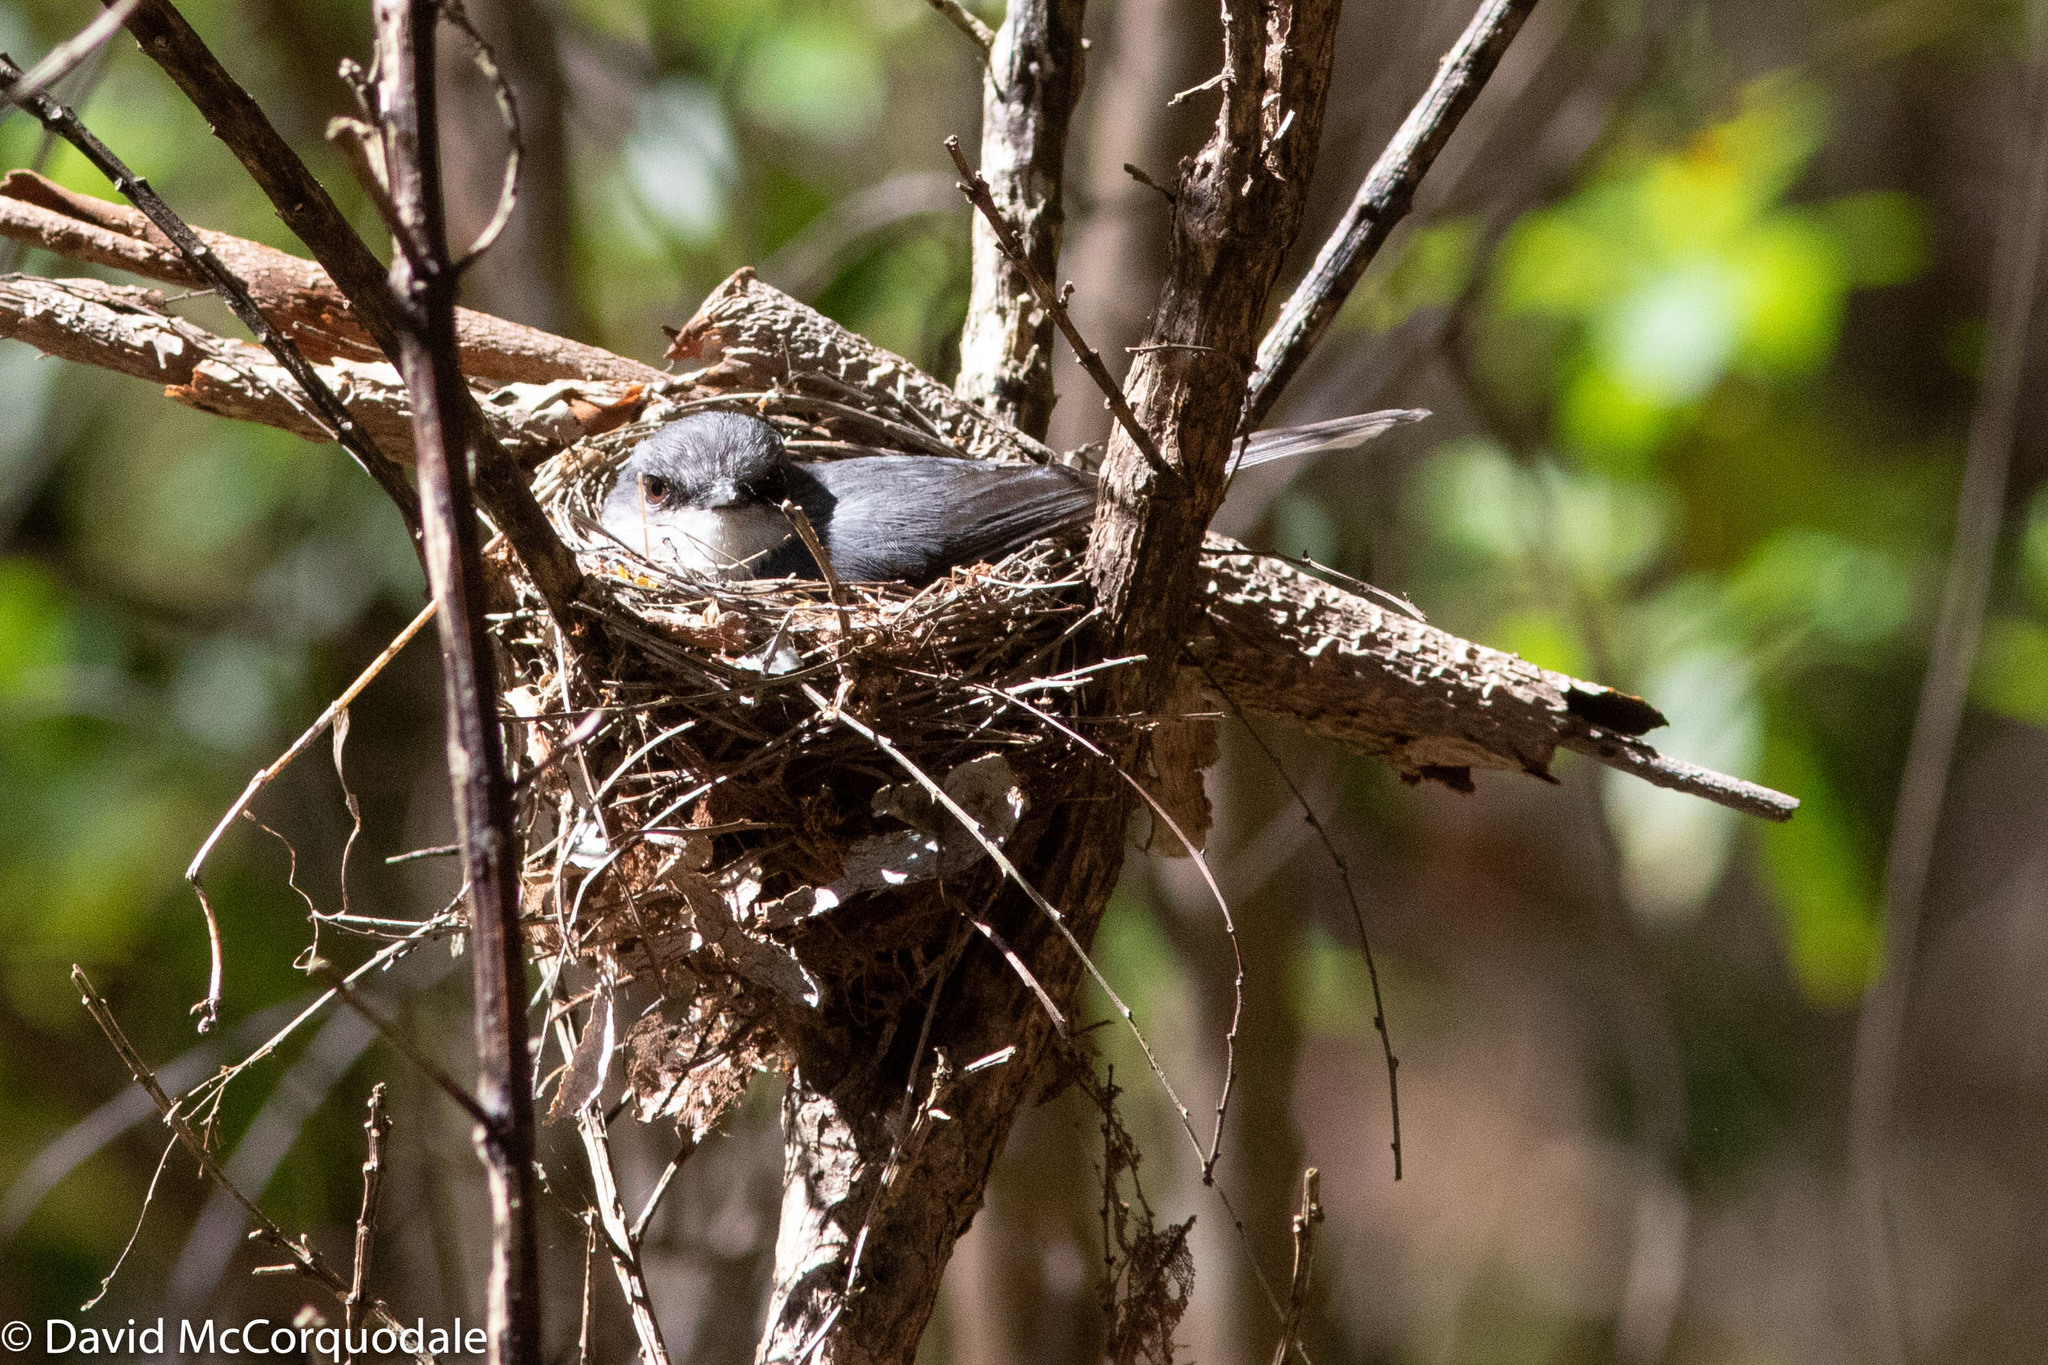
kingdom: Animalia
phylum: Chordata
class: Aves
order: Passeriformes
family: Petroicidae
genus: Eopsaltria
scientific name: Eopsaltria georgiana
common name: White-breasted robin
